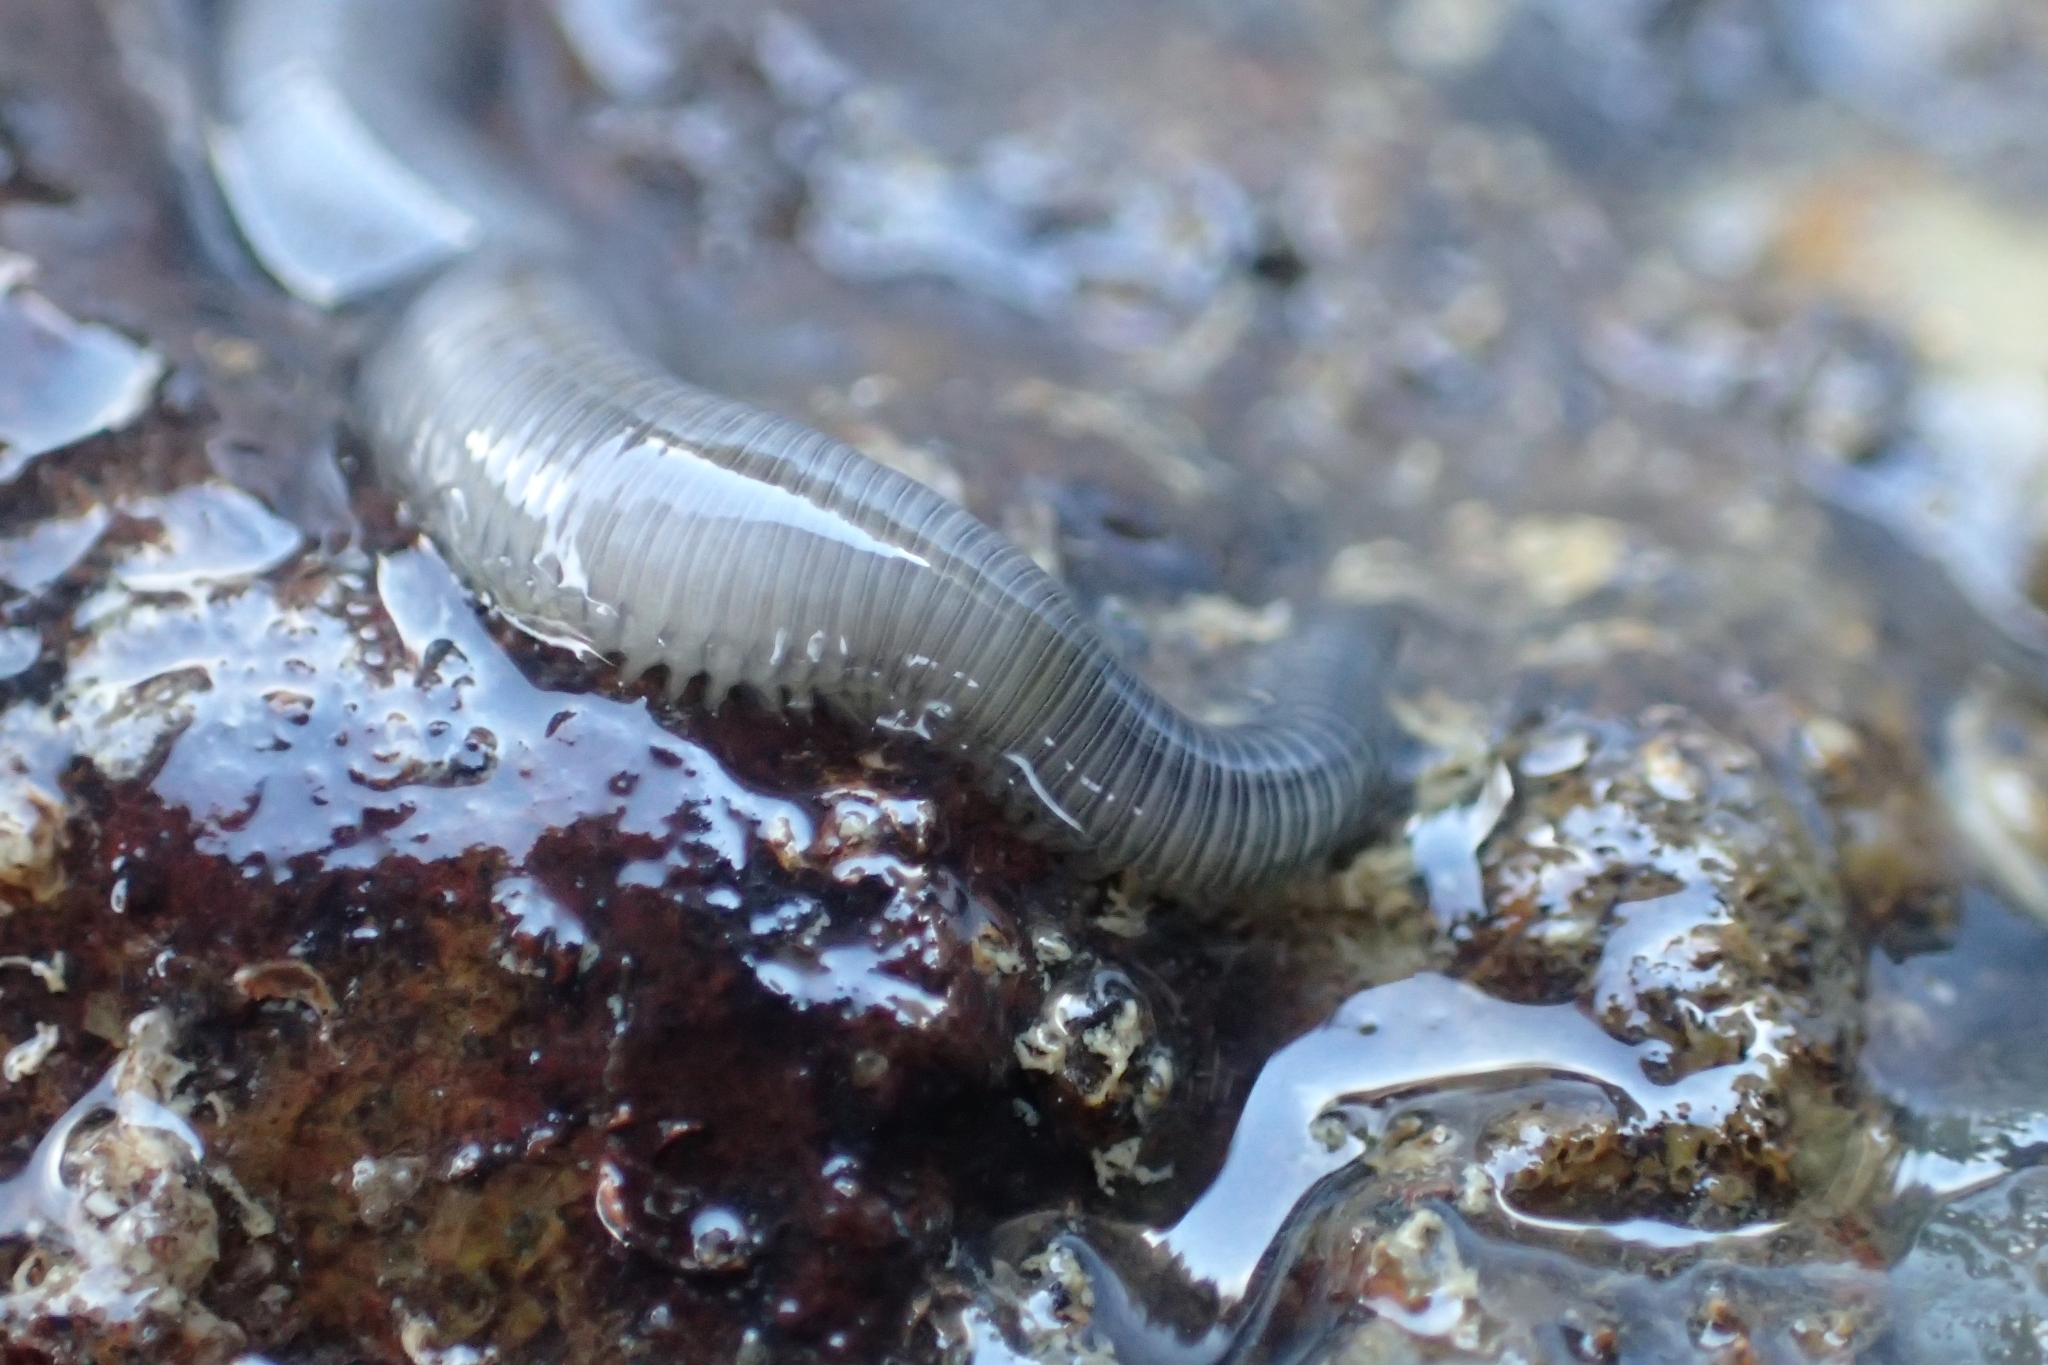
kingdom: Animalia
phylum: Annelida
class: Polychaeta
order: Phyllodocida
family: Syllidae
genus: Odontosyllis
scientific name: Odontosyllis polycera
